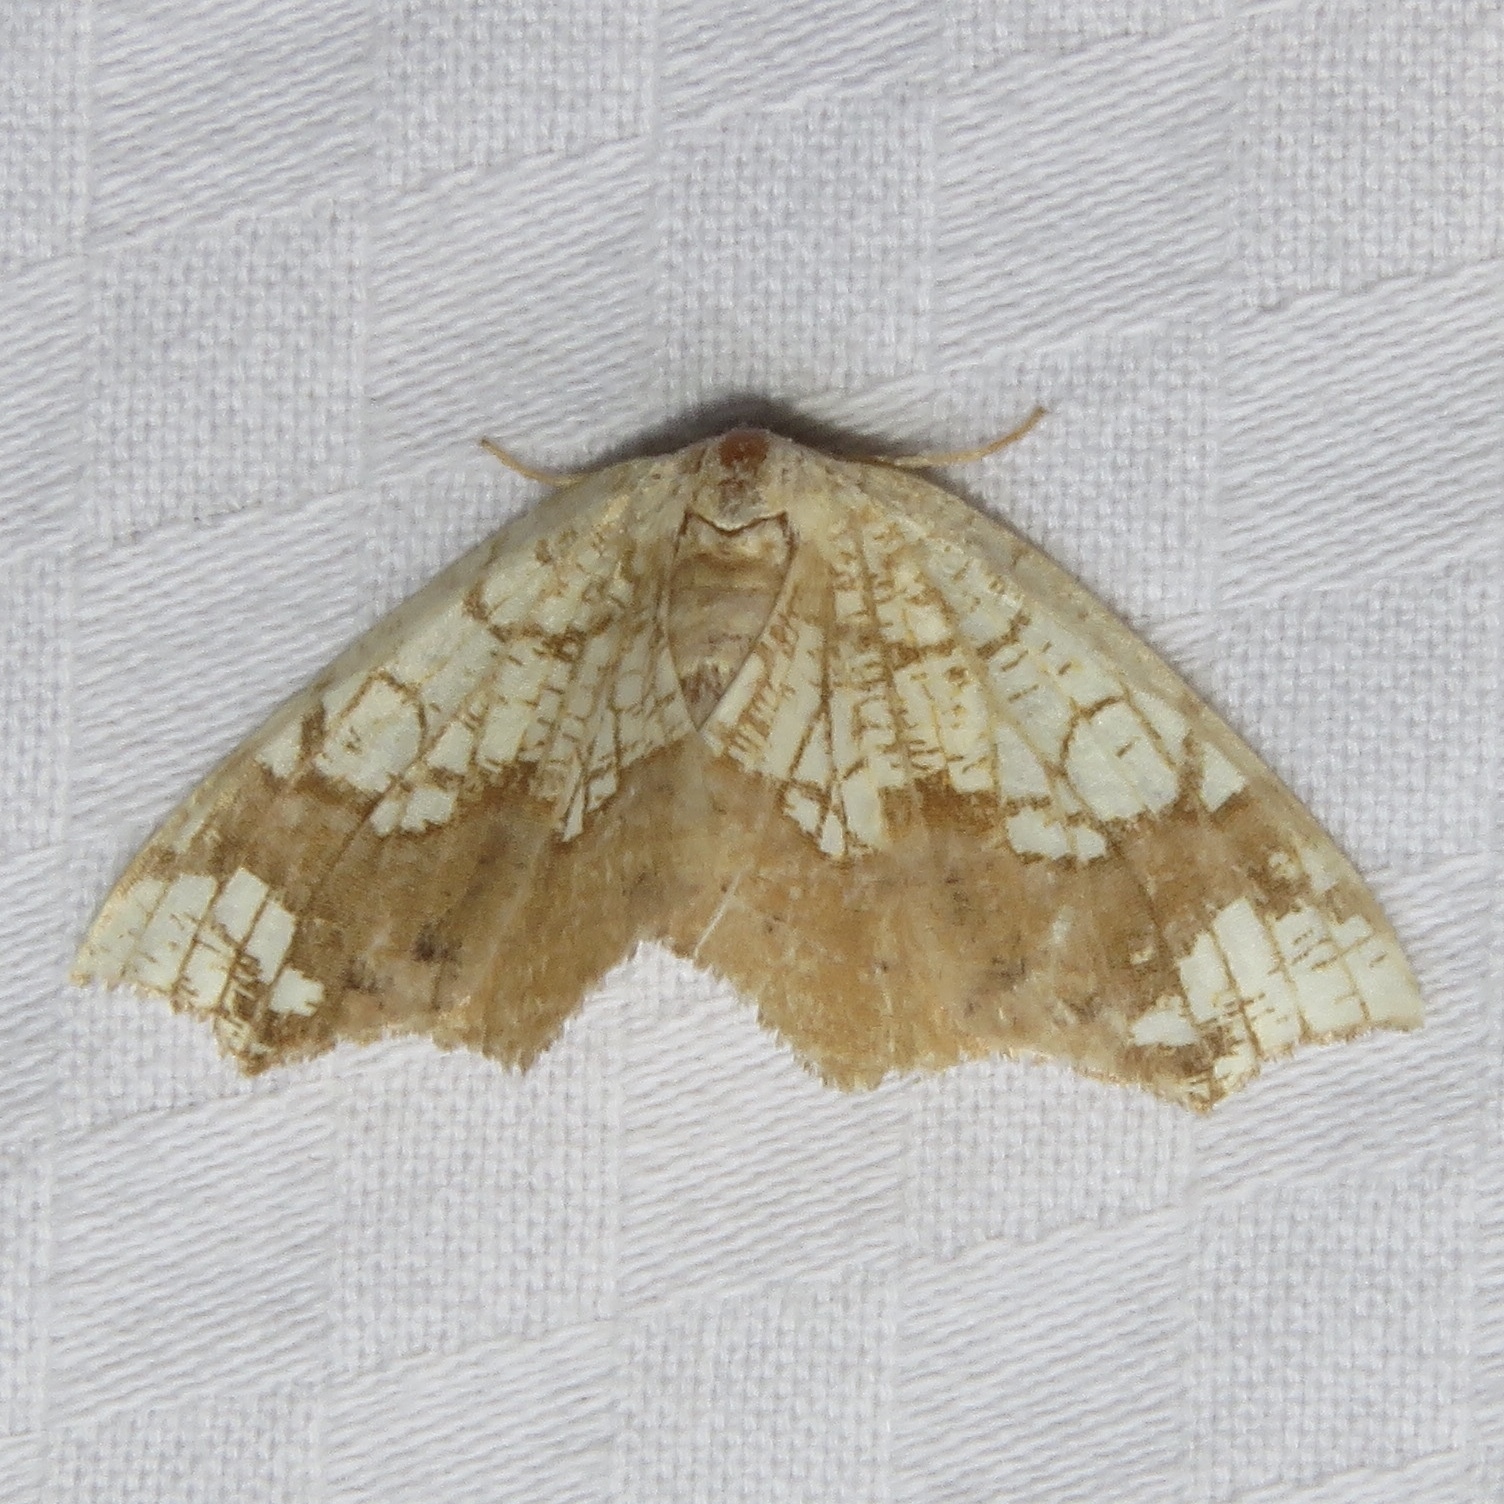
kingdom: Animalia
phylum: Arthropoda
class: Insecta
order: Lepidoptera
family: Geometridae
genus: Nematocampa
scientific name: Nematocampa resistaria
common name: Horned spanworm moth
